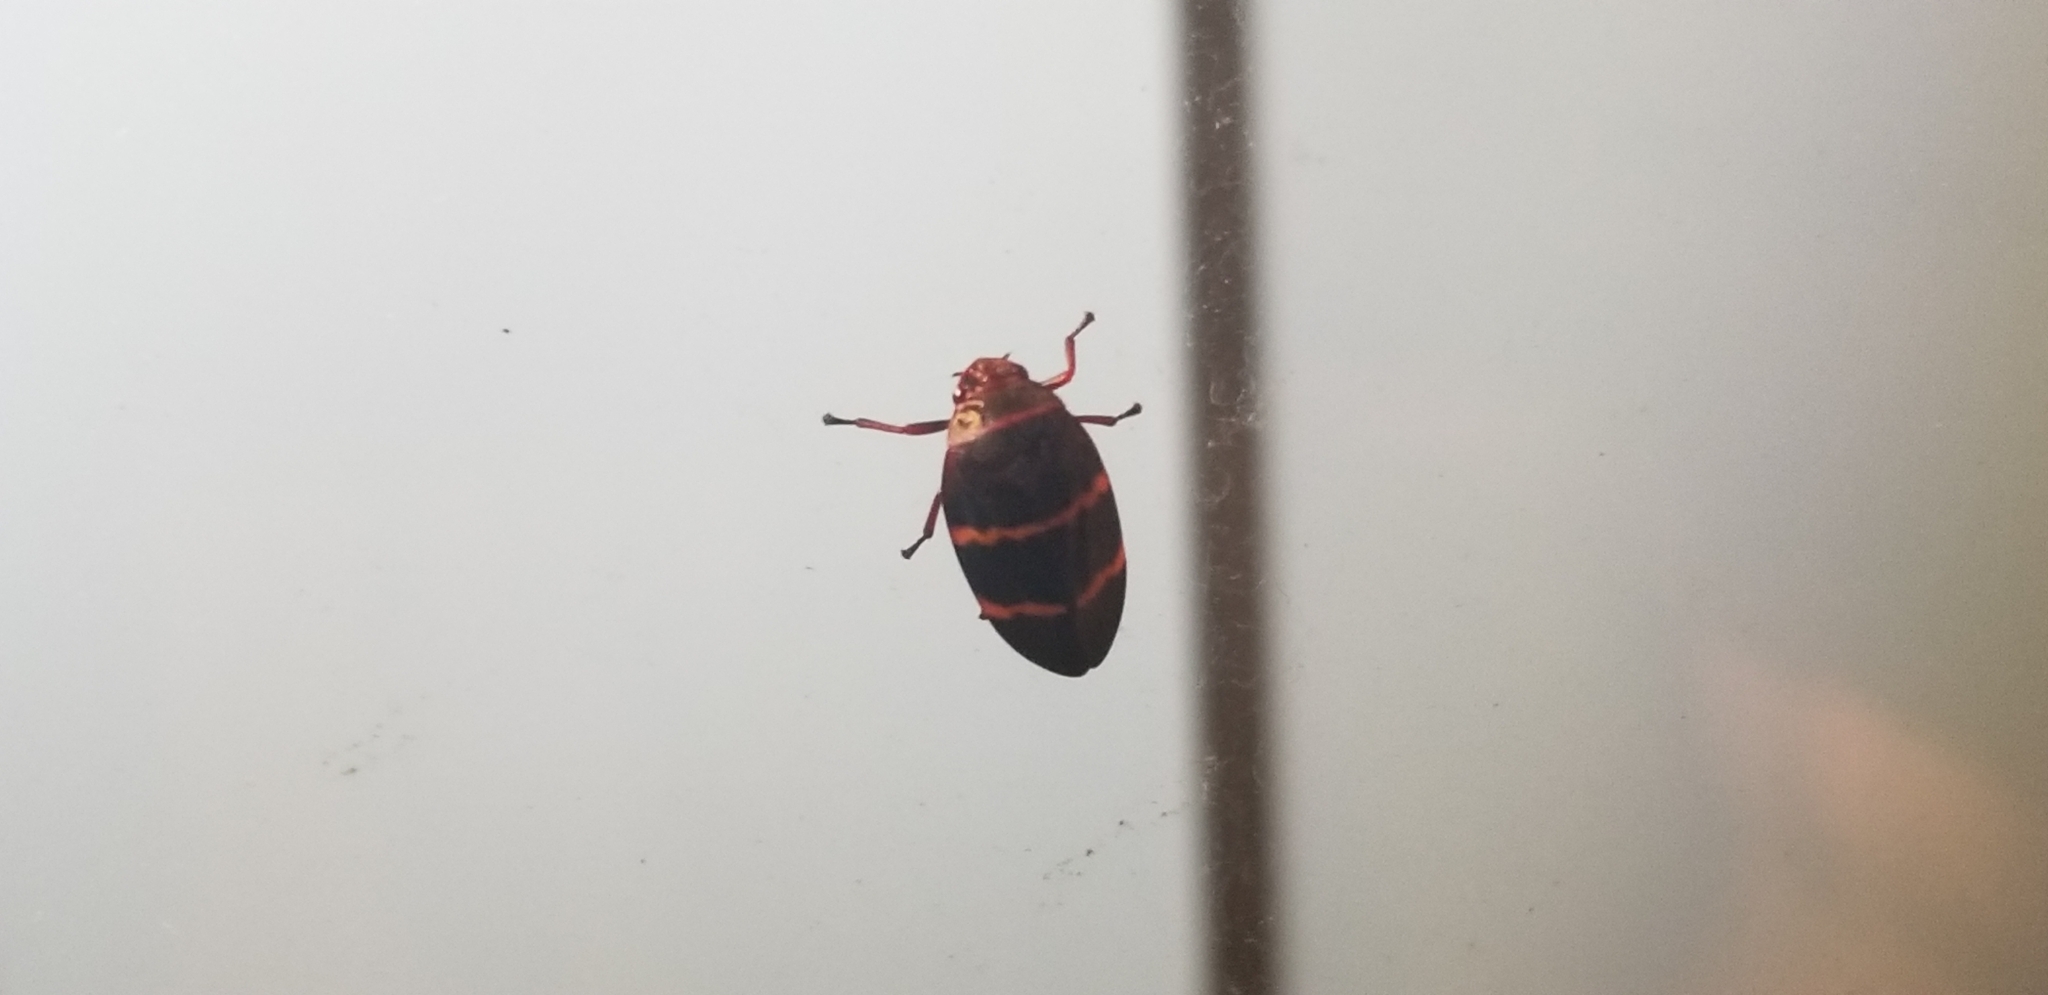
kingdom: Animalia
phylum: Arthropoda
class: Insecta
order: Hemiptera
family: Cercopidae
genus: Prosapia
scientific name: Prosapia bicincta
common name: Twolined spittlebug
